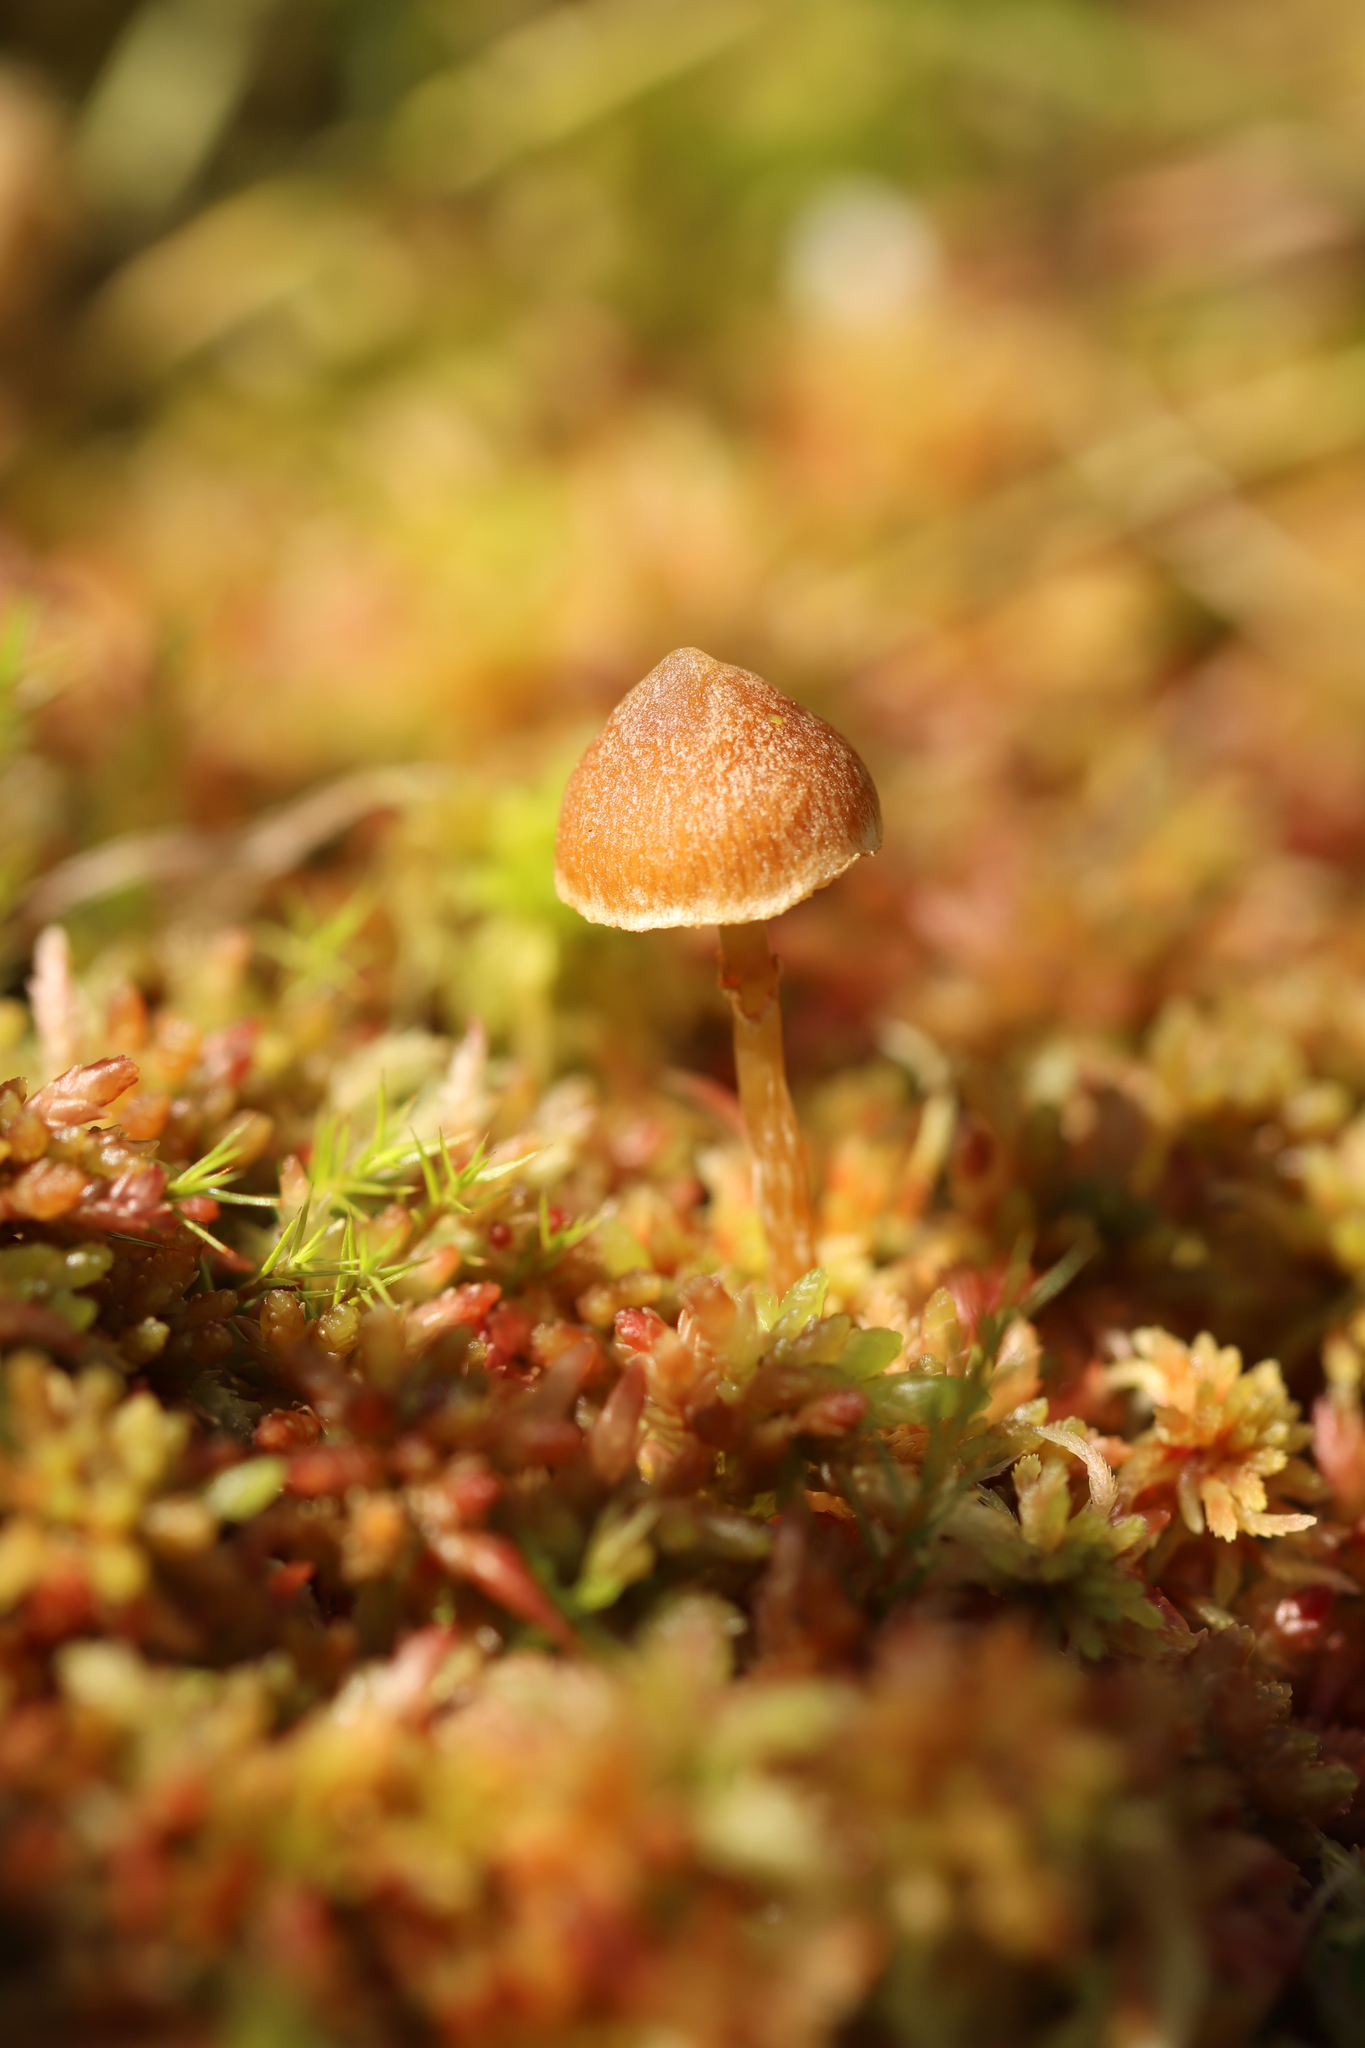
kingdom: Fungi
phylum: Basidiomycota
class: Agaricomycetes
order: Agaricales
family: Hymenogastraceae
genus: Galerina
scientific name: Galerina paludosa
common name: Bog bell
